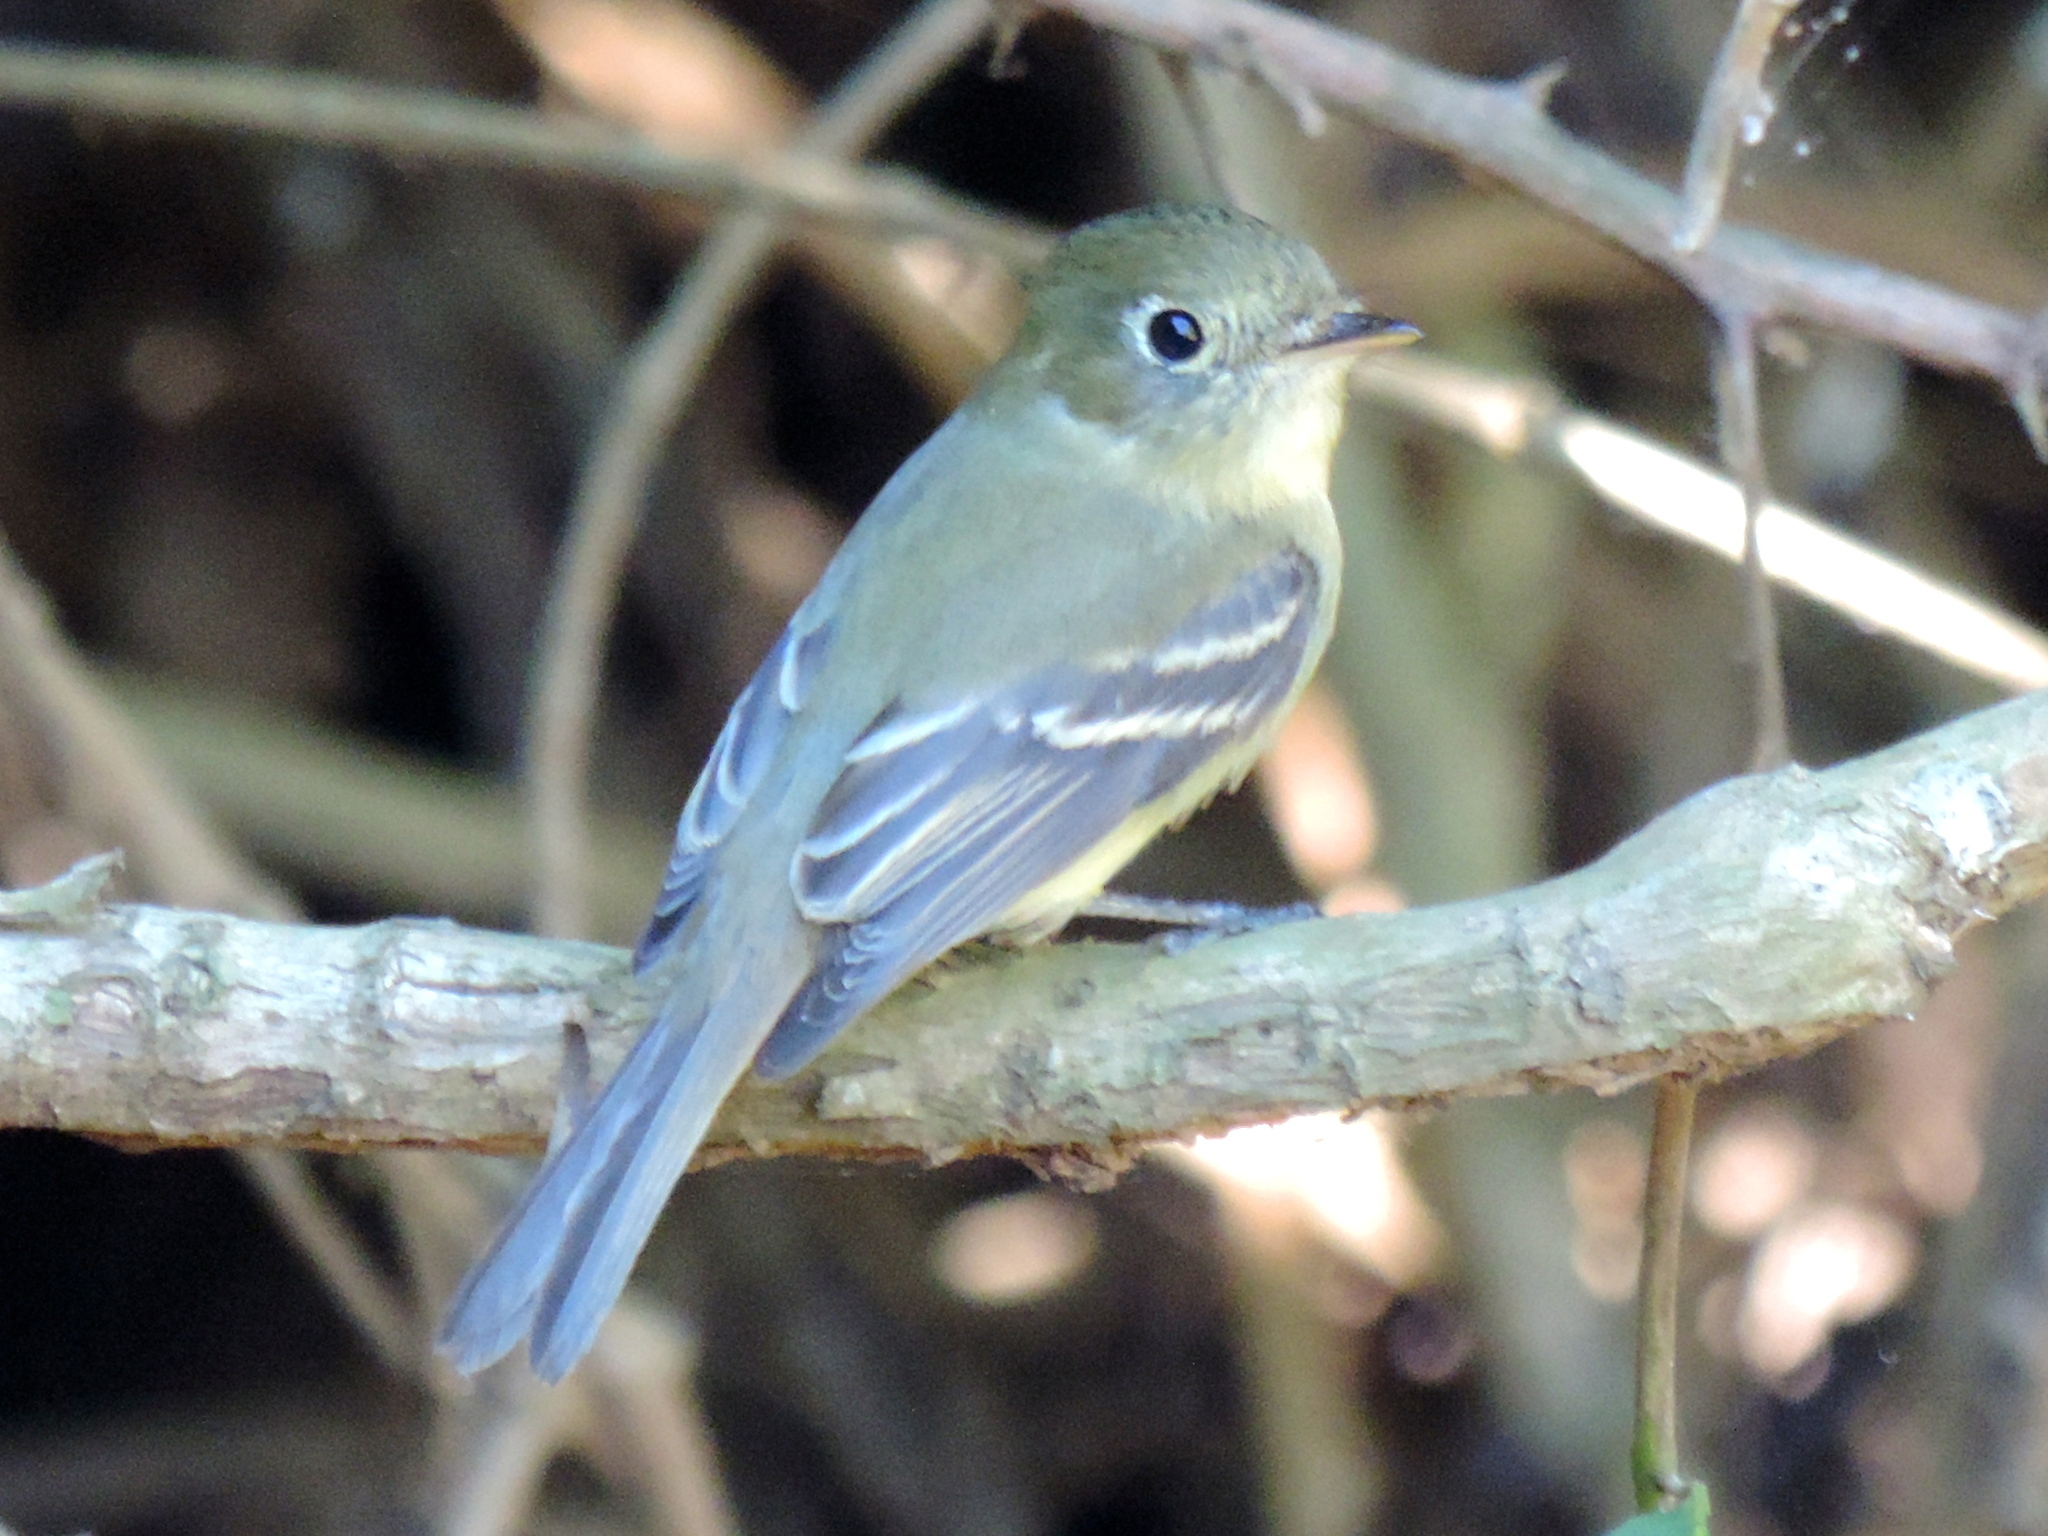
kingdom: Animalia
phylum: Chordata
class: Aves
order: Passeriformes
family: Tyrannidae
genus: Empidonax
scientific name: Empidonax
